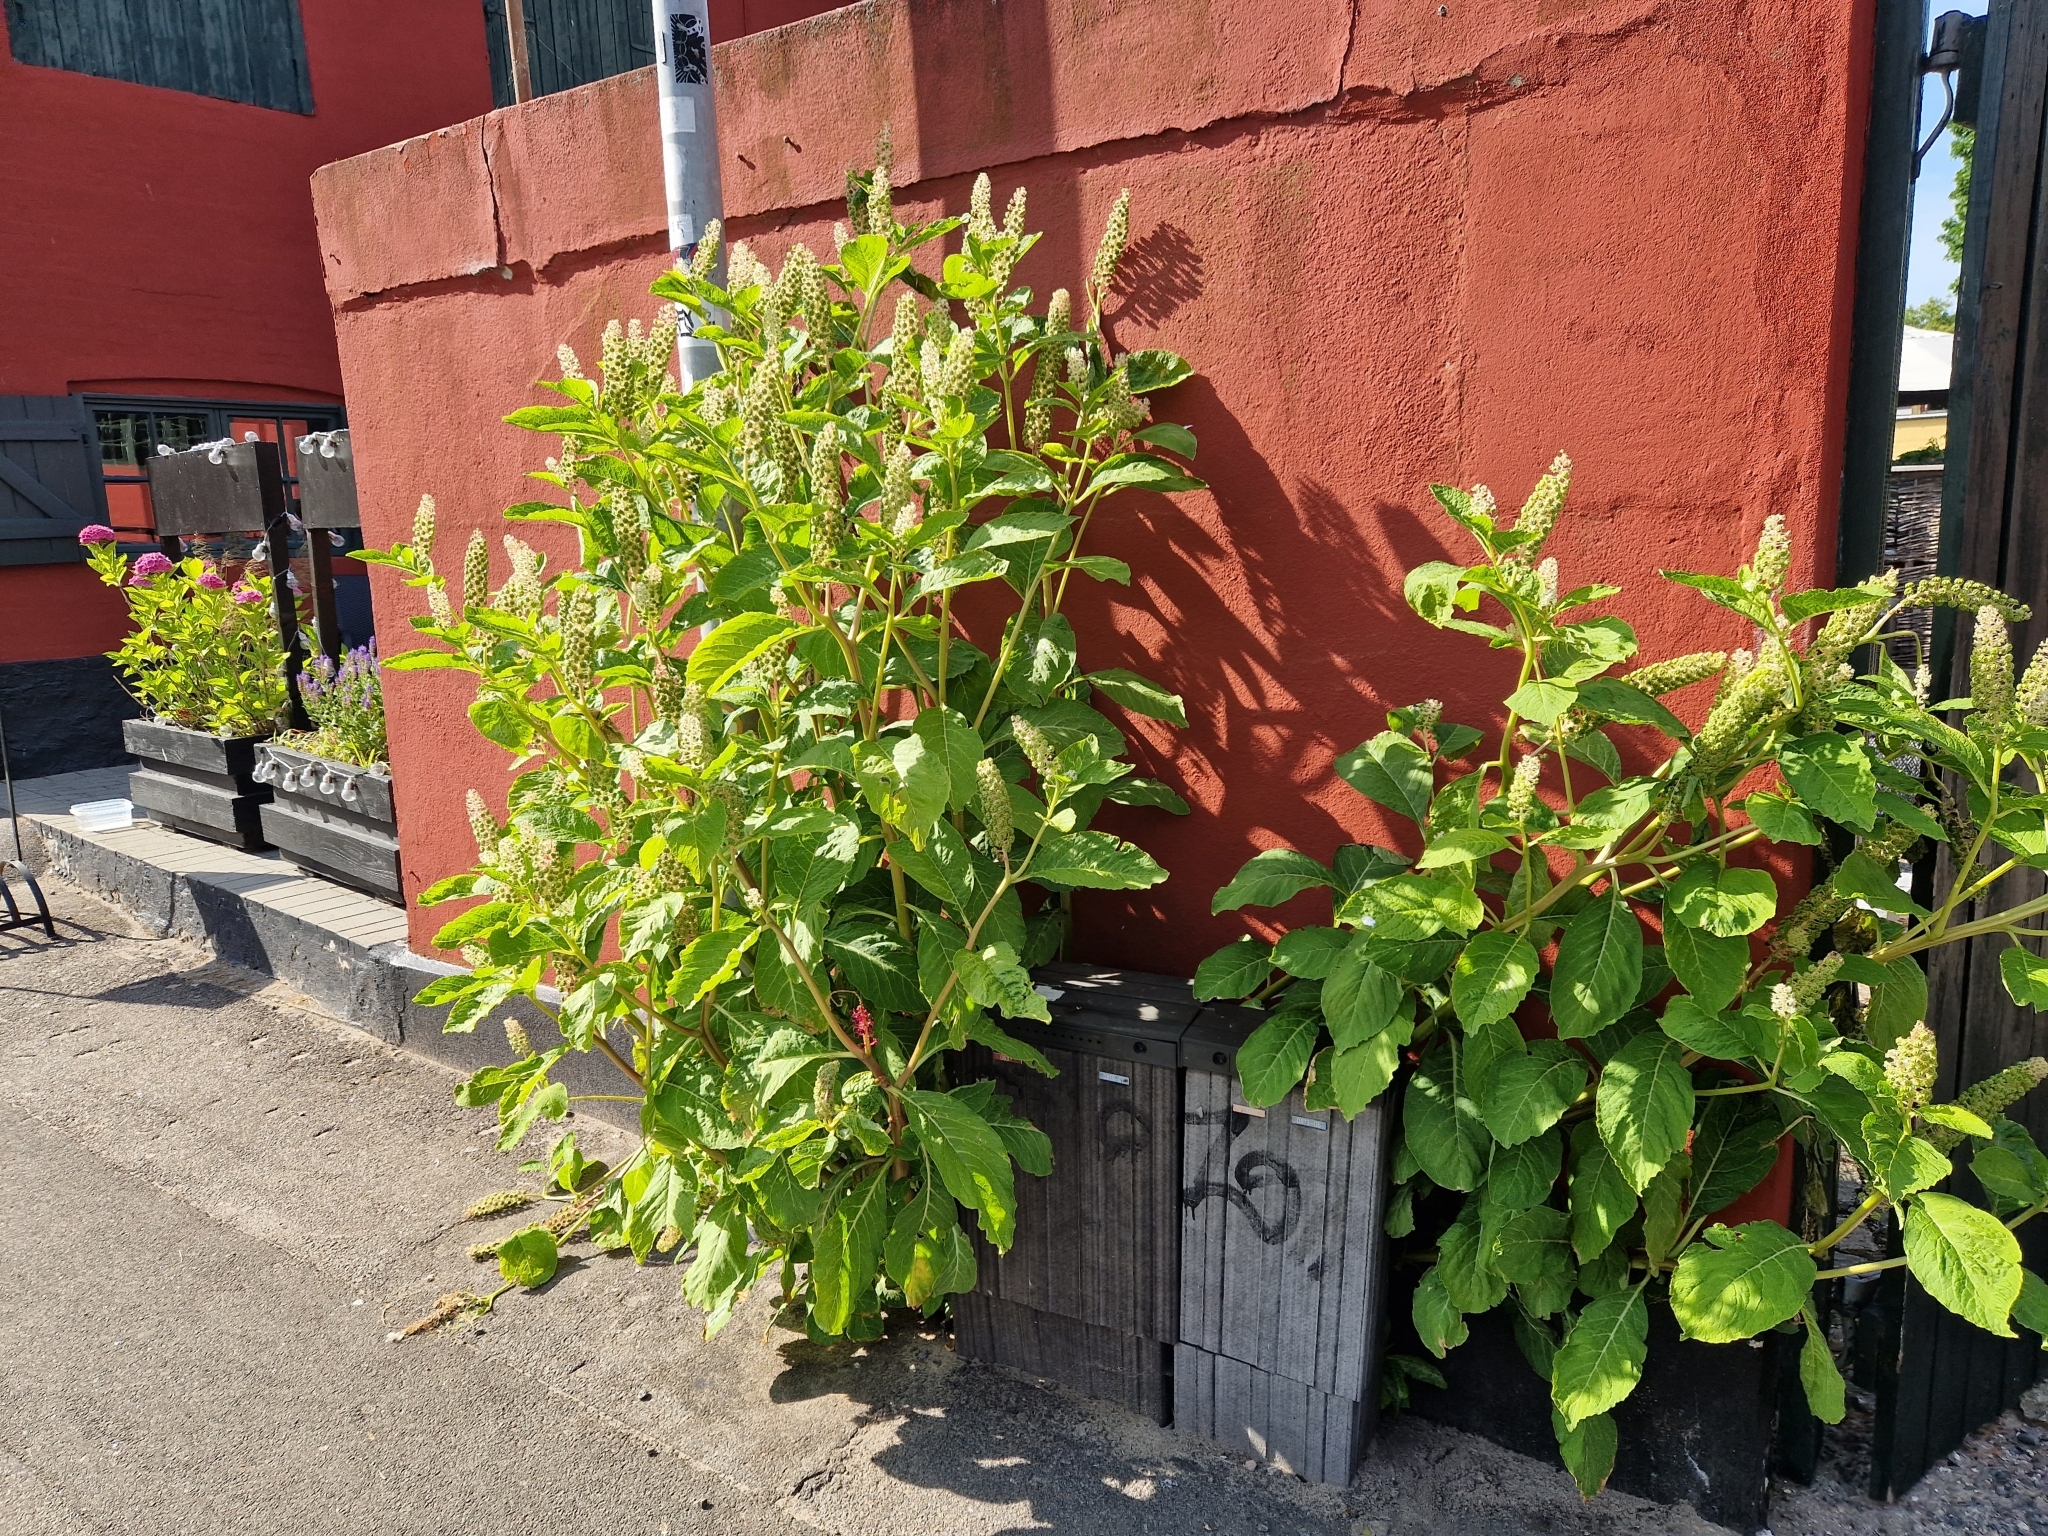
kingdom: Plantae
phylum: Tracheophyta
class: Magnoliopsida
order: Caryophyllales
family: Phytolaccaceae
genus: Phytolacca
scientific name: Phytolacca acinosa
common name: Indian pokeweed
